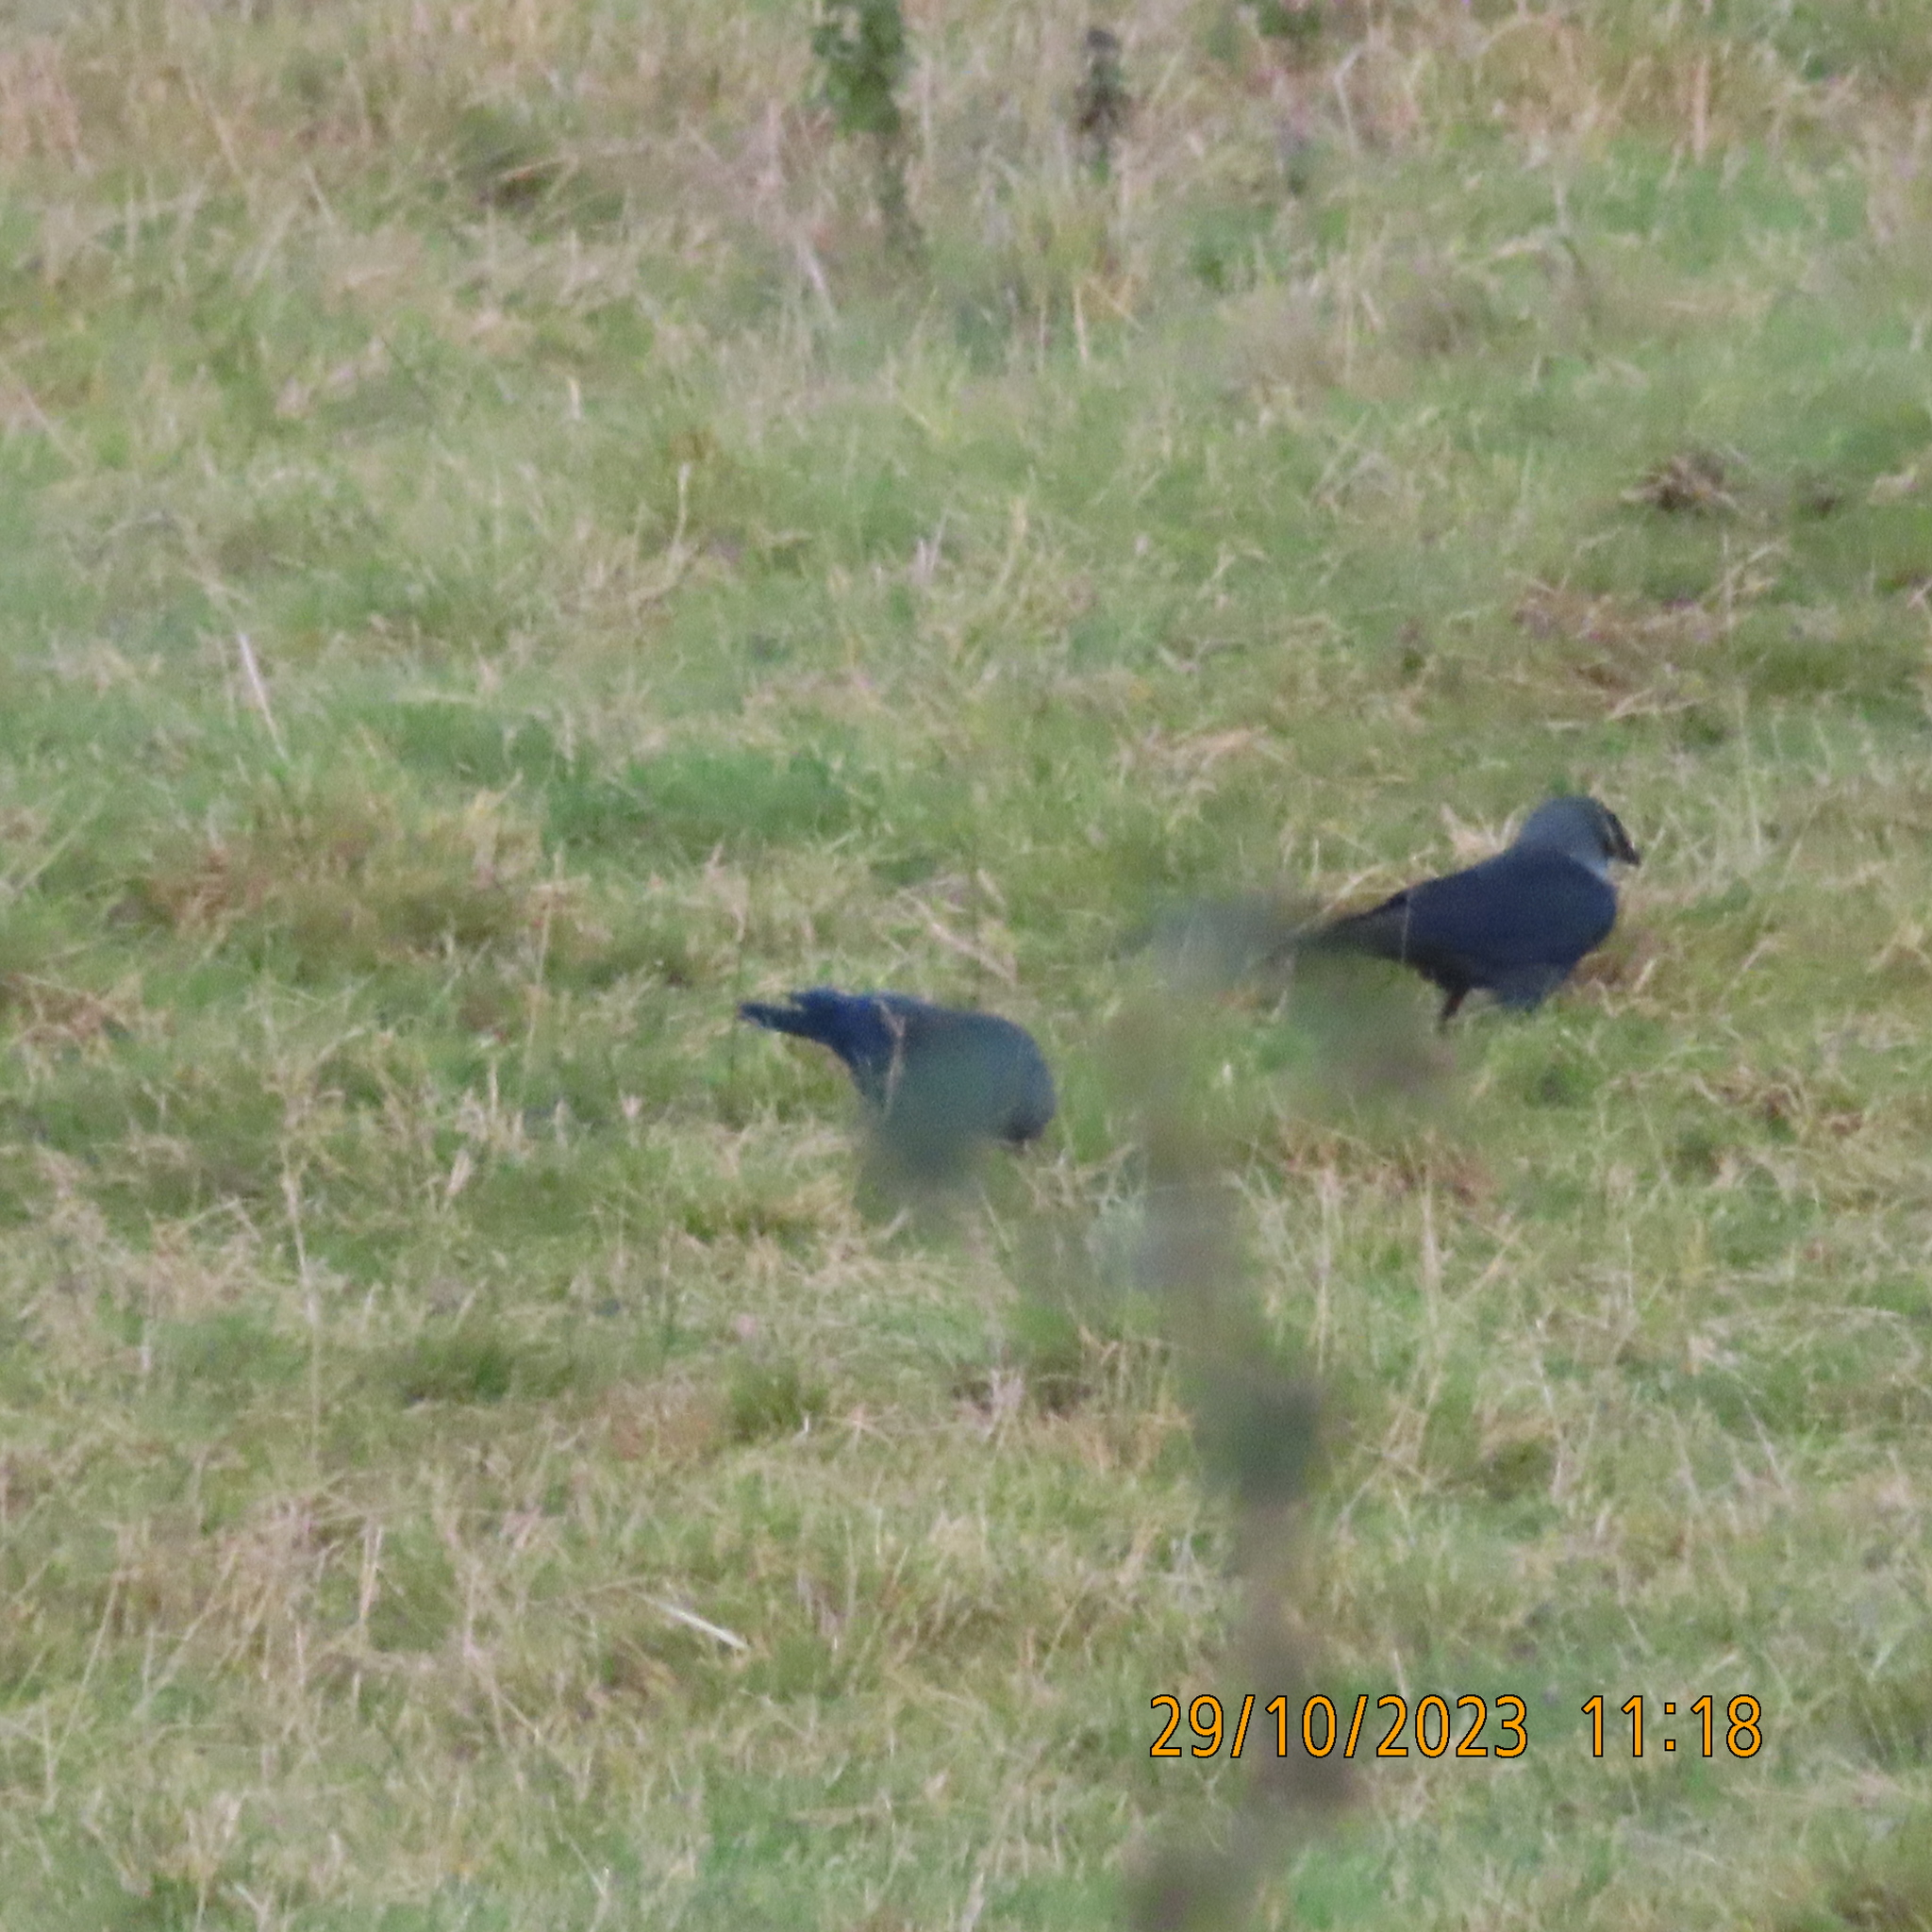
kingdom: Animalia
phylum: Chordata
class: Aves
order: Passeriformes
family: Corvidae
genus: Coloeus
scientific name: Coloeus monedula
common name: Western jackdaw
